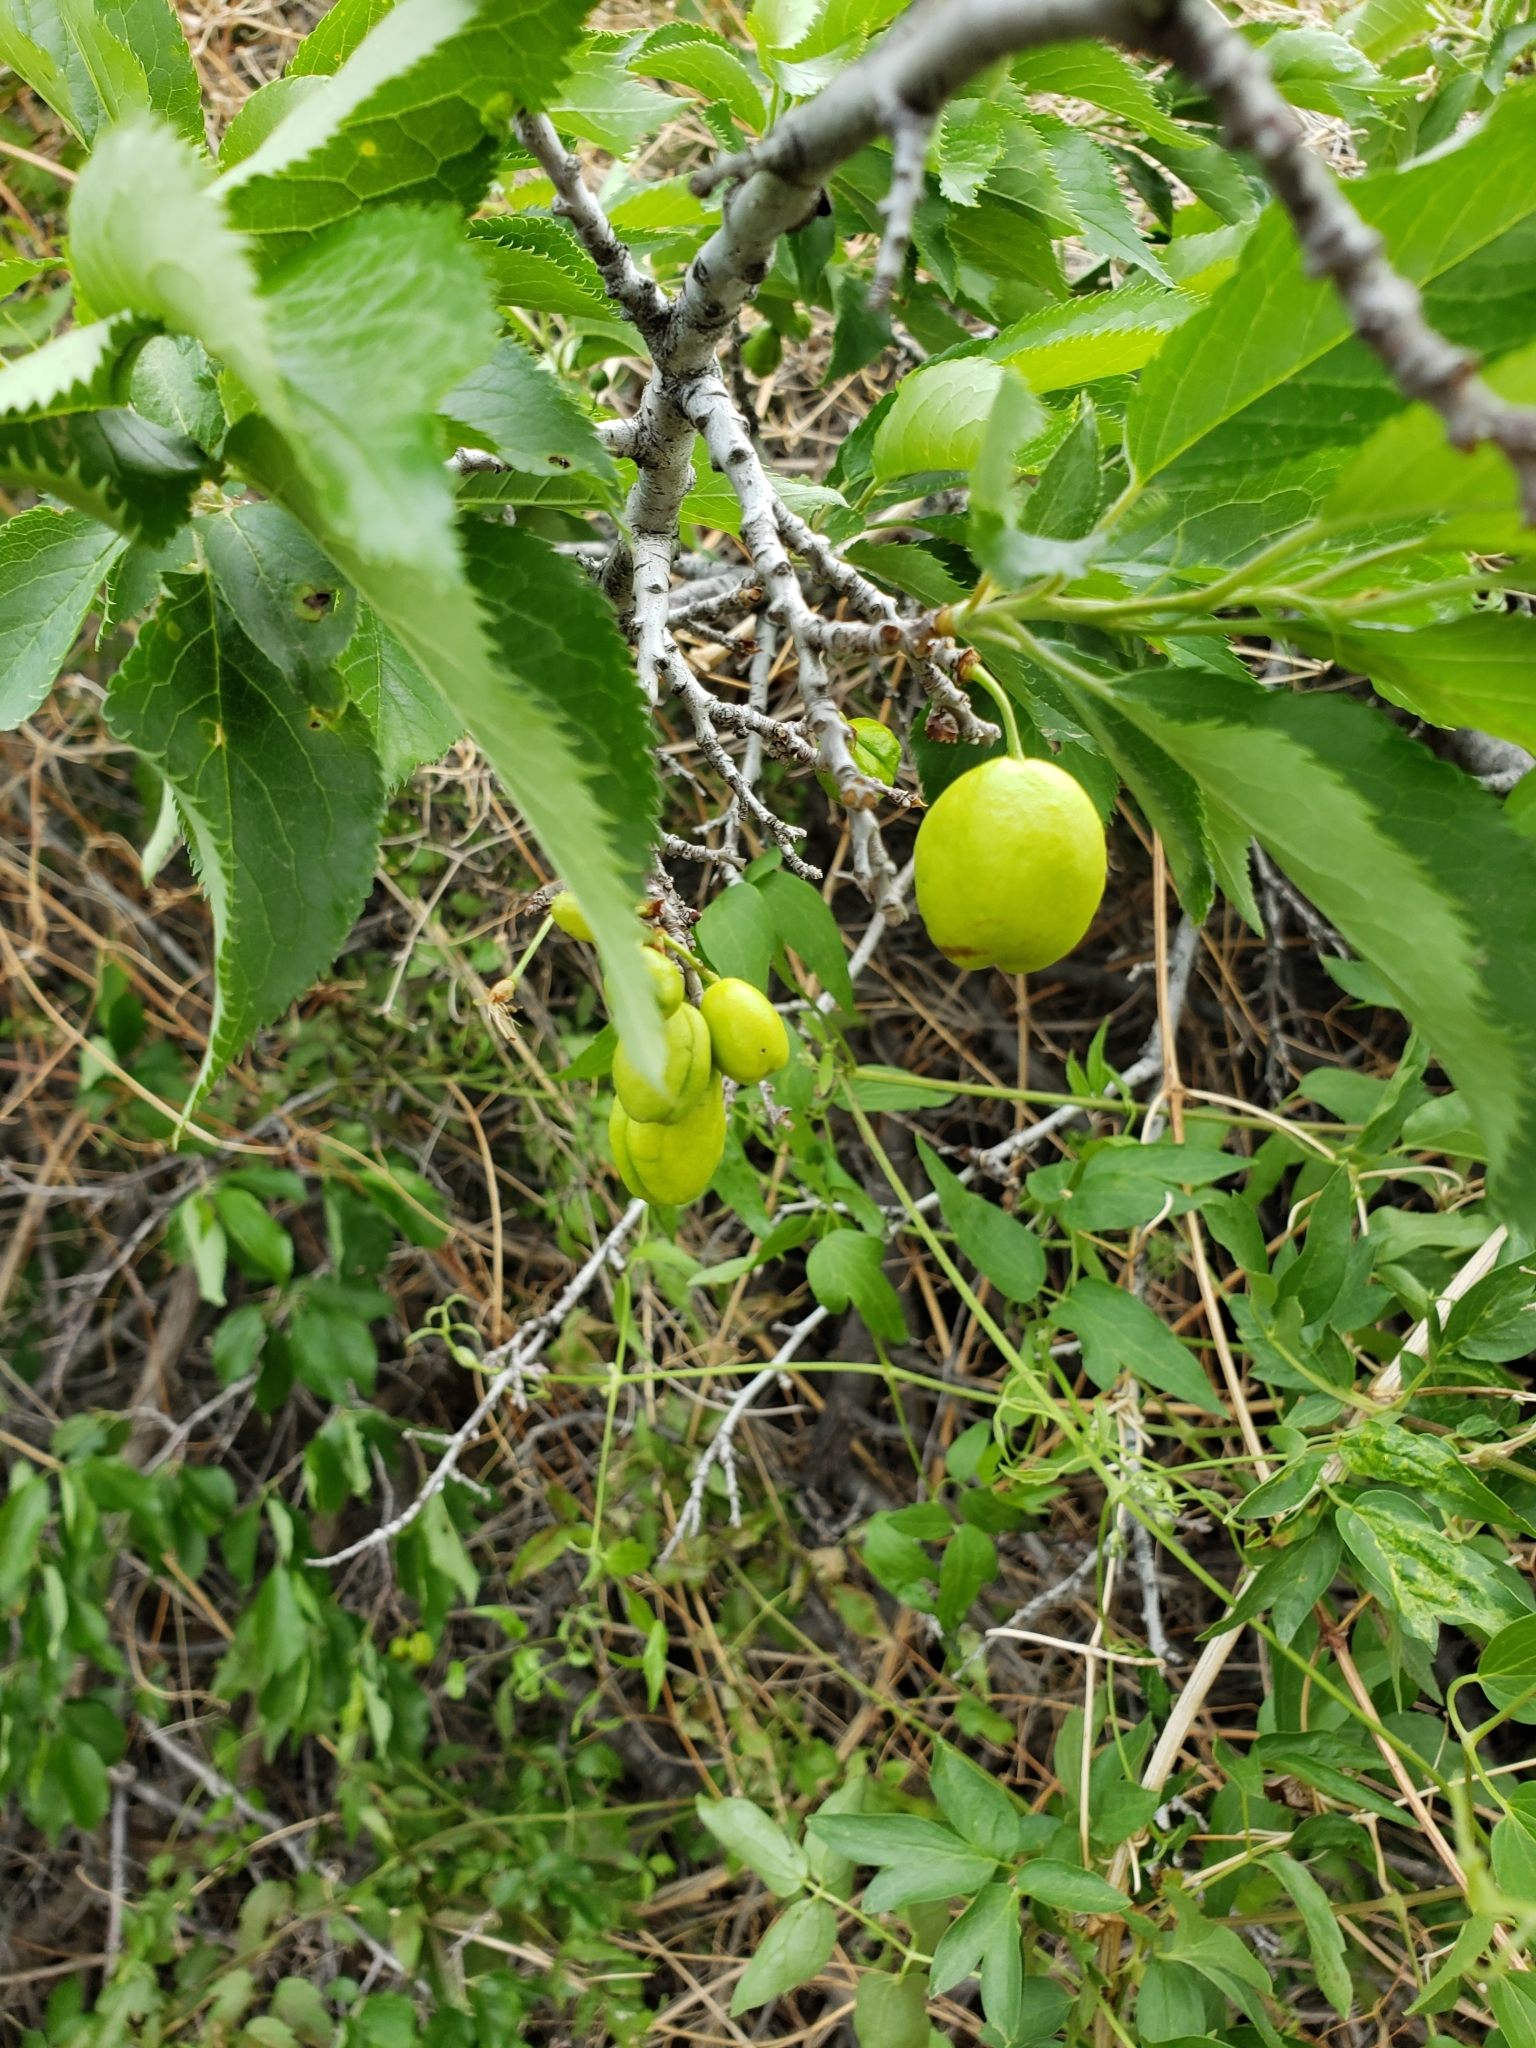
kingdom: Plantae
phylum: Tracheophyta
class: Magnoliopsida
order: Rosales
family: Rosaceae
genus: Prunus
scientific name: Prunus americana
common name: American plum
